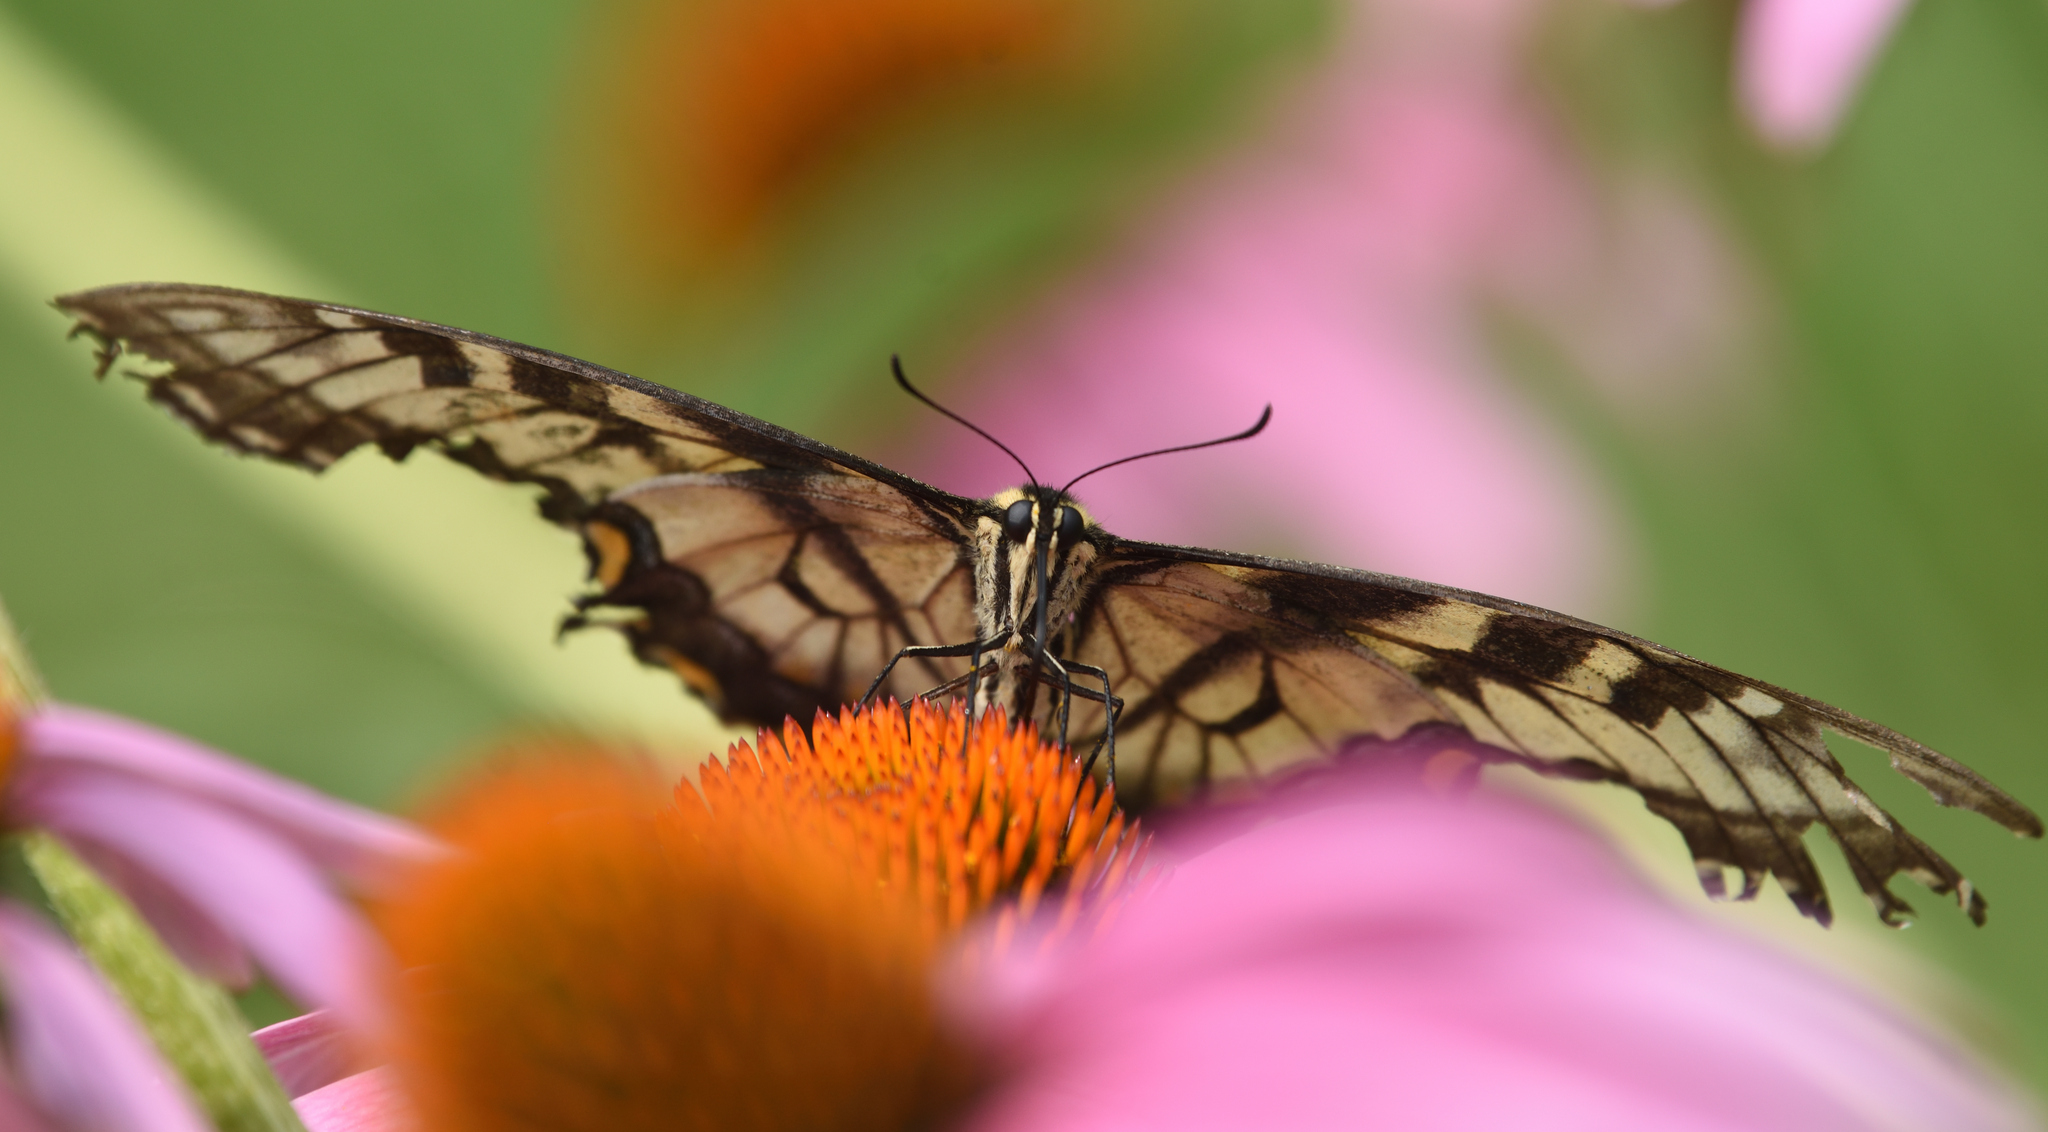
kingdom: Animalia
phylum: Arthropoda
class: Insecta
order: Lepidoptera
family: Papilionidae
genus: Papilio
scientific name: Papilio glaucus
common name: Tiger swallowtail
